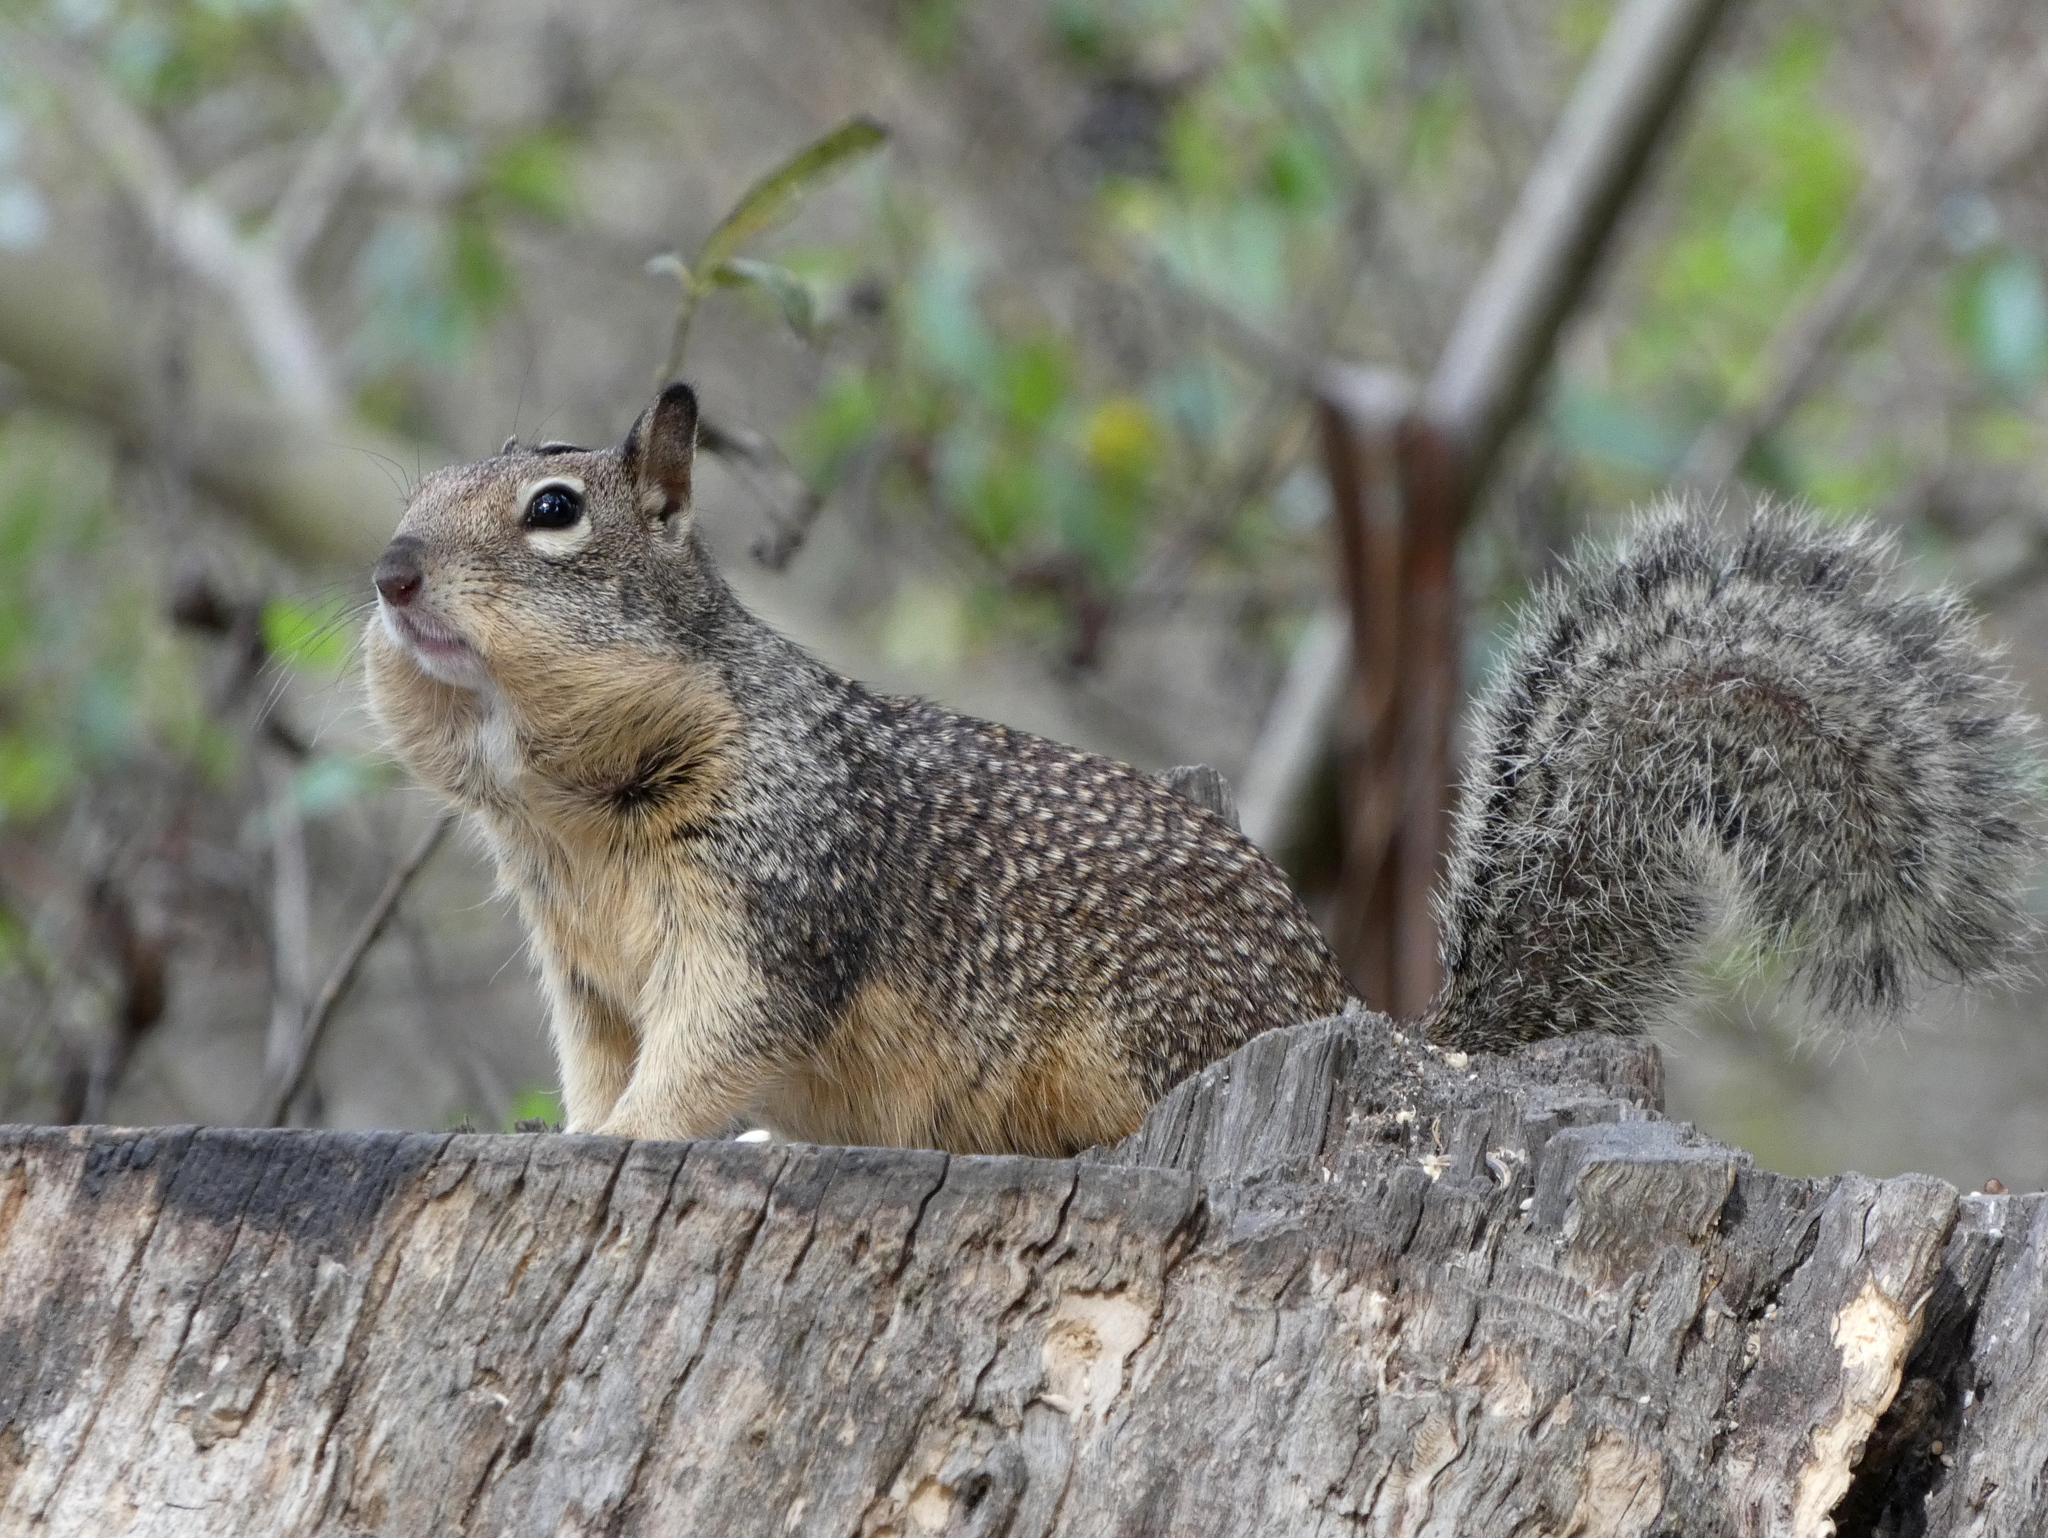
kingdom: Animalia
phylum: Chordata
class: Mammalia
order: Rodentia
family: Sciuridae
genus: Otospermophilus
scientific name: Otospermophilus beecheyi
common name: California ground squirrel
